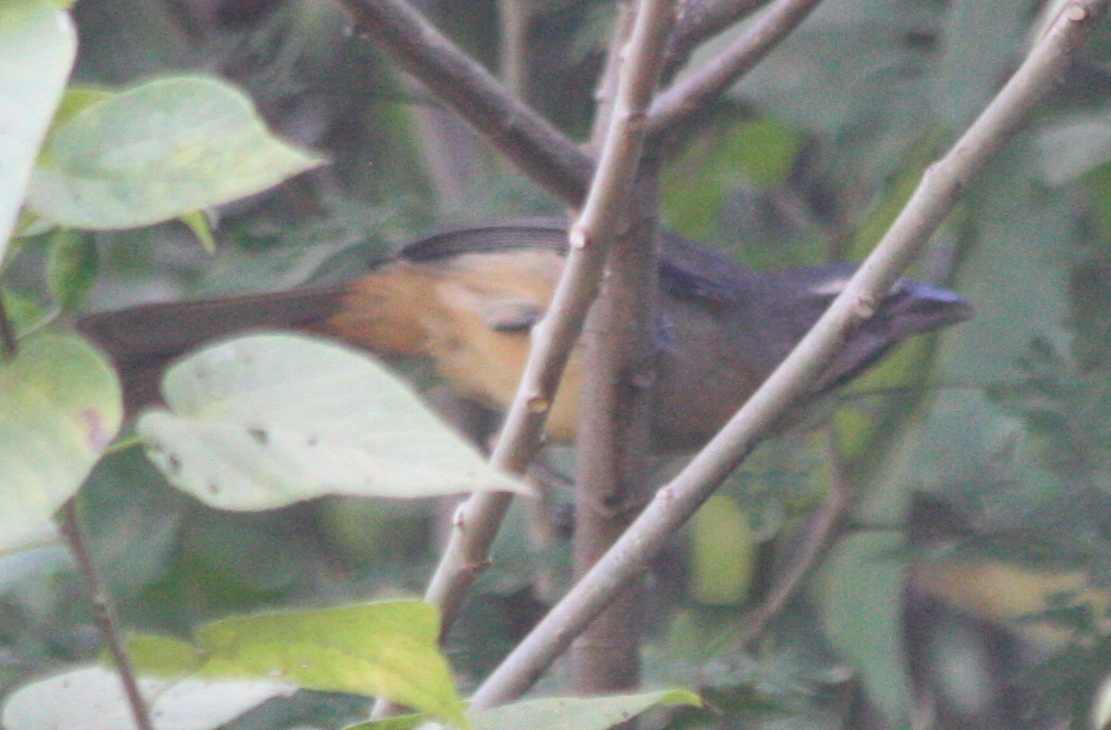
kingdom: Animalia
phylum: Chordata
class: Aves
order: Passeriformes
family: Thraupidae
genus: Saltator
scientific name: Saltator grandis
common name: Cinnamon-bellied saltator
